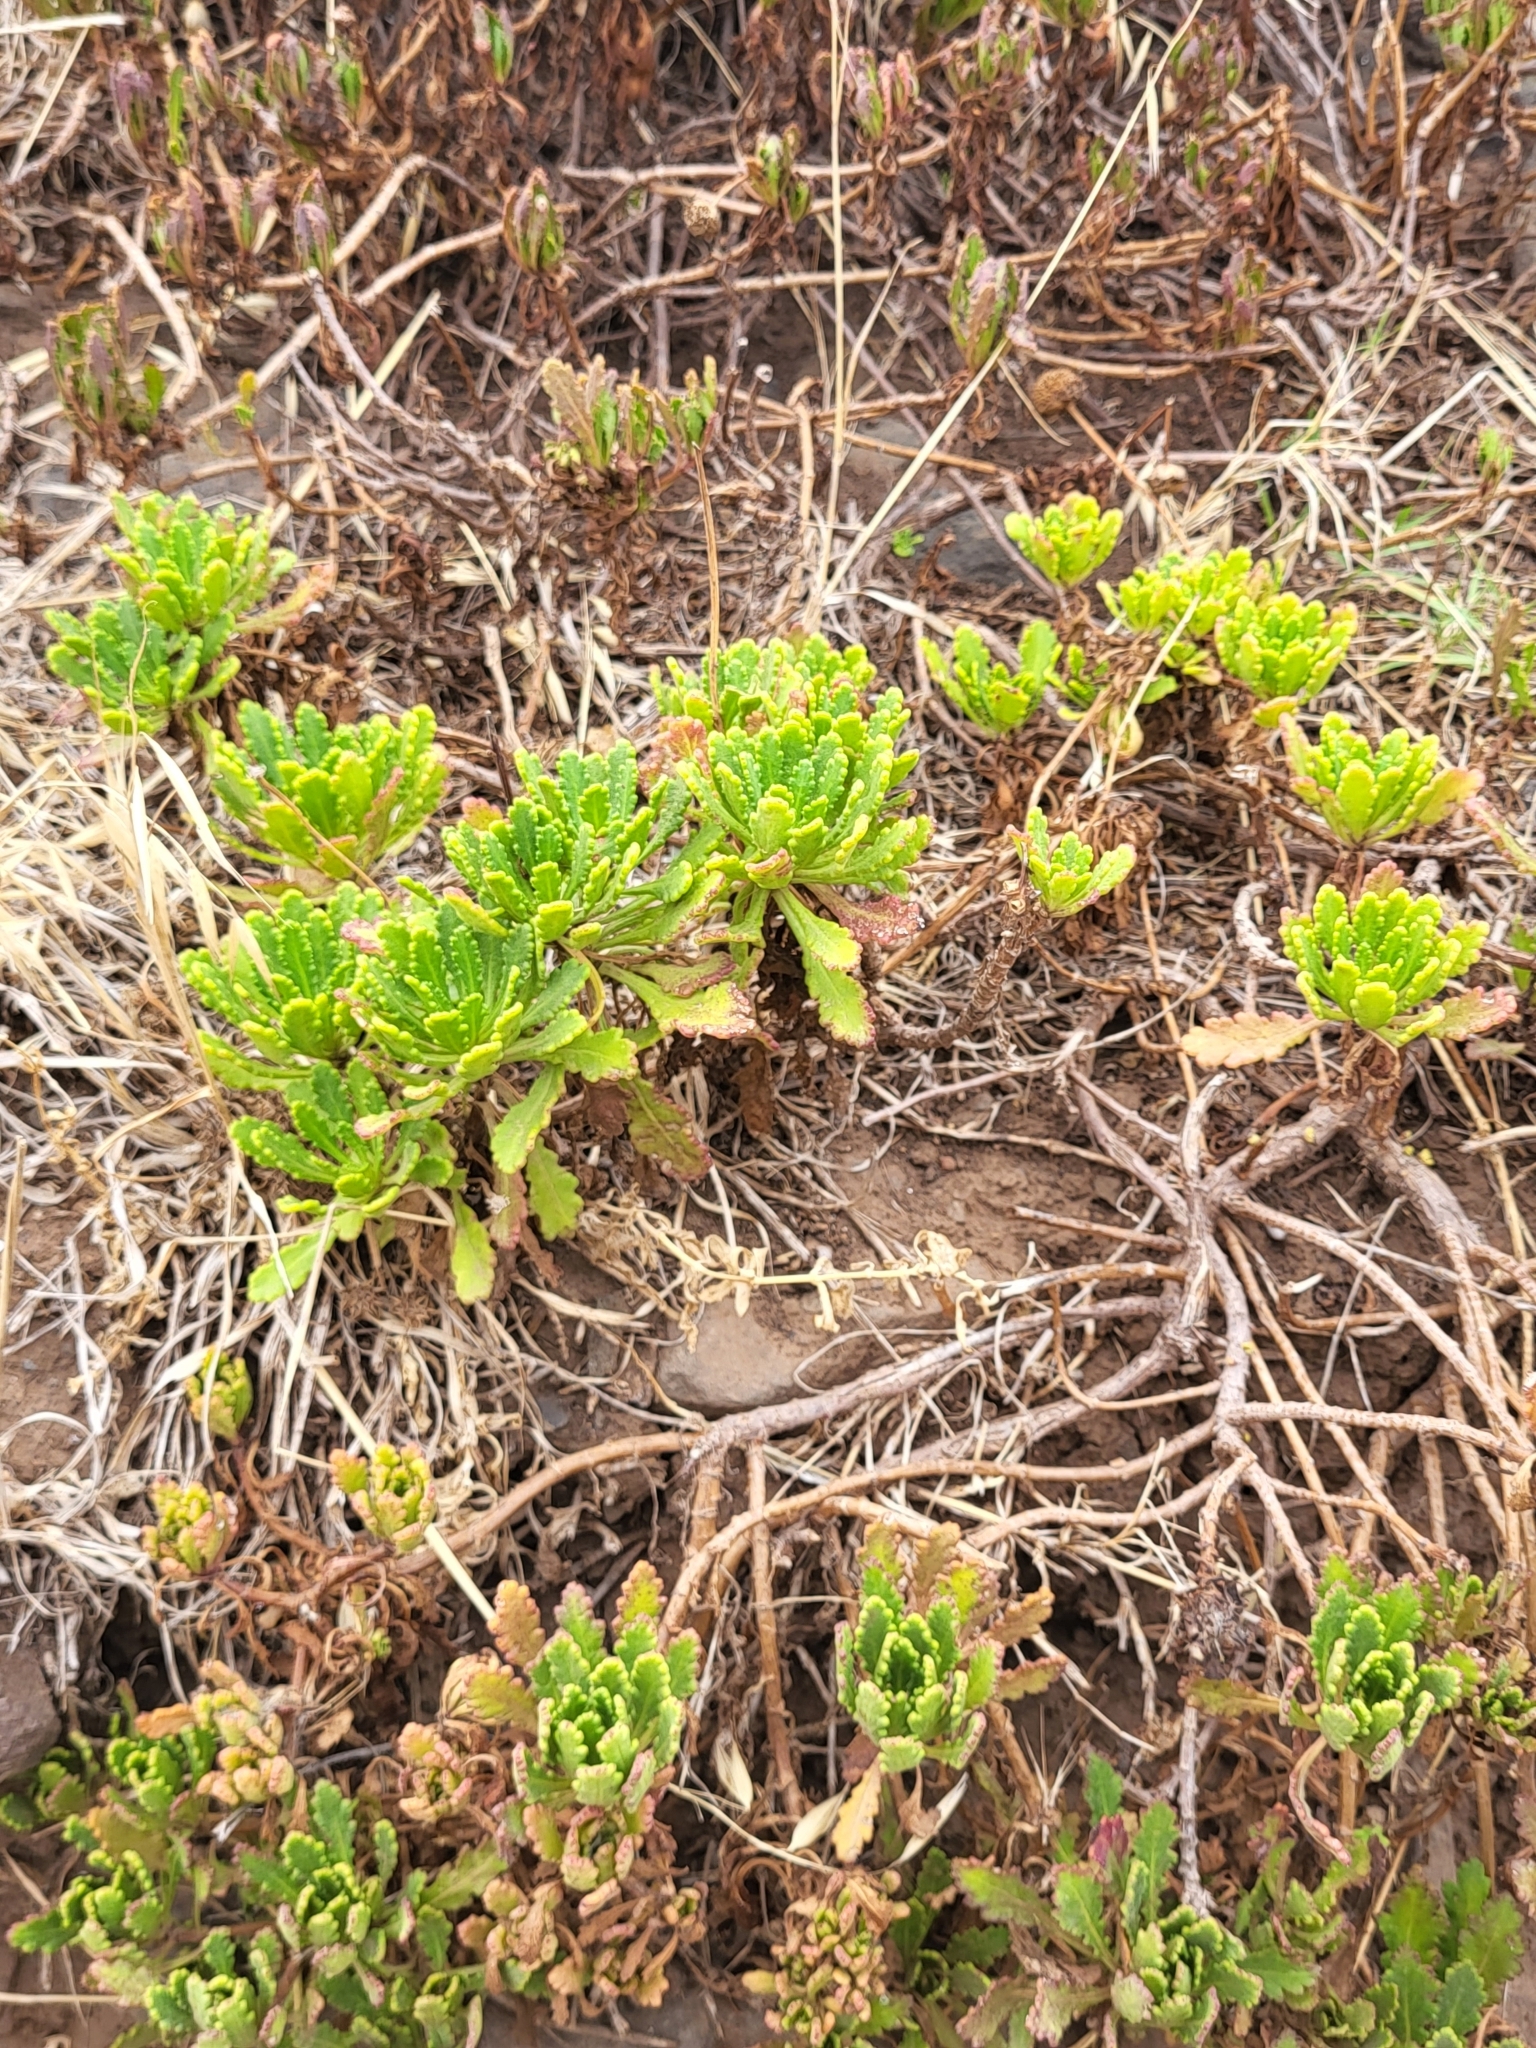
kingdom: Plantae
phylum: Tracheophyta
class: Magnoliopsida
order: Asterales
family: Asteraceae
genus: Argyranthemum
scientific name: Argyranthemum pinnatifidum
